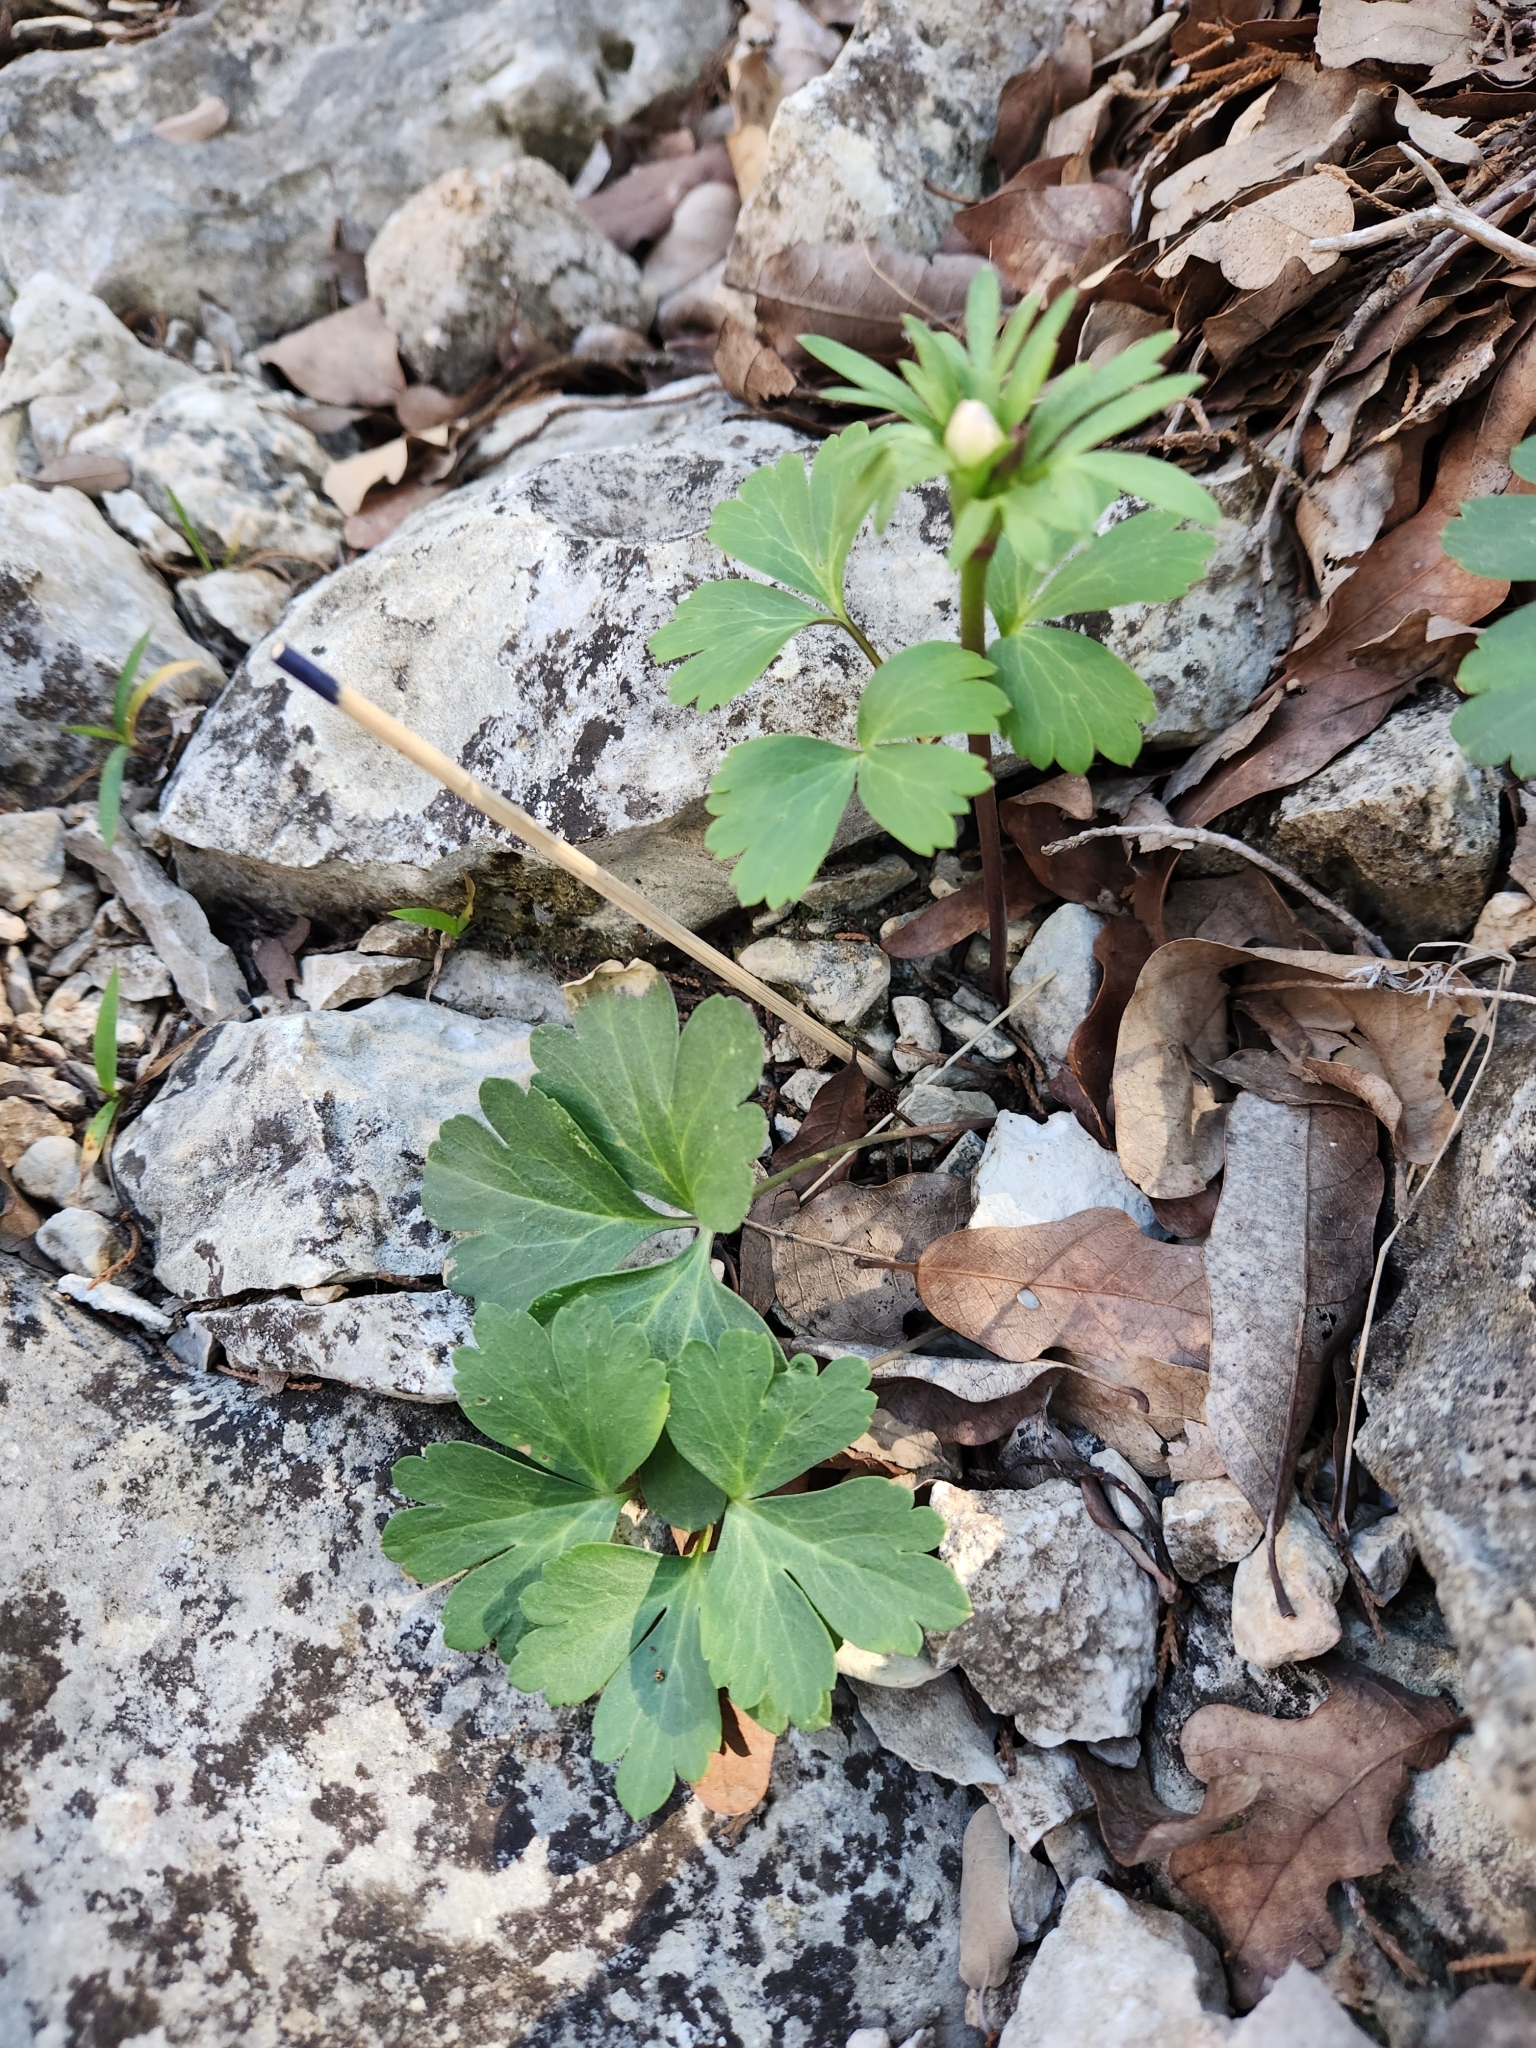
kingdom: Plantae
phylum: Tracheophyta
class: Magnoliopsida
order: Ranunculales
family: Ranunculaceae
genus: Anemone
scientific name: Anemone edwardsiana
